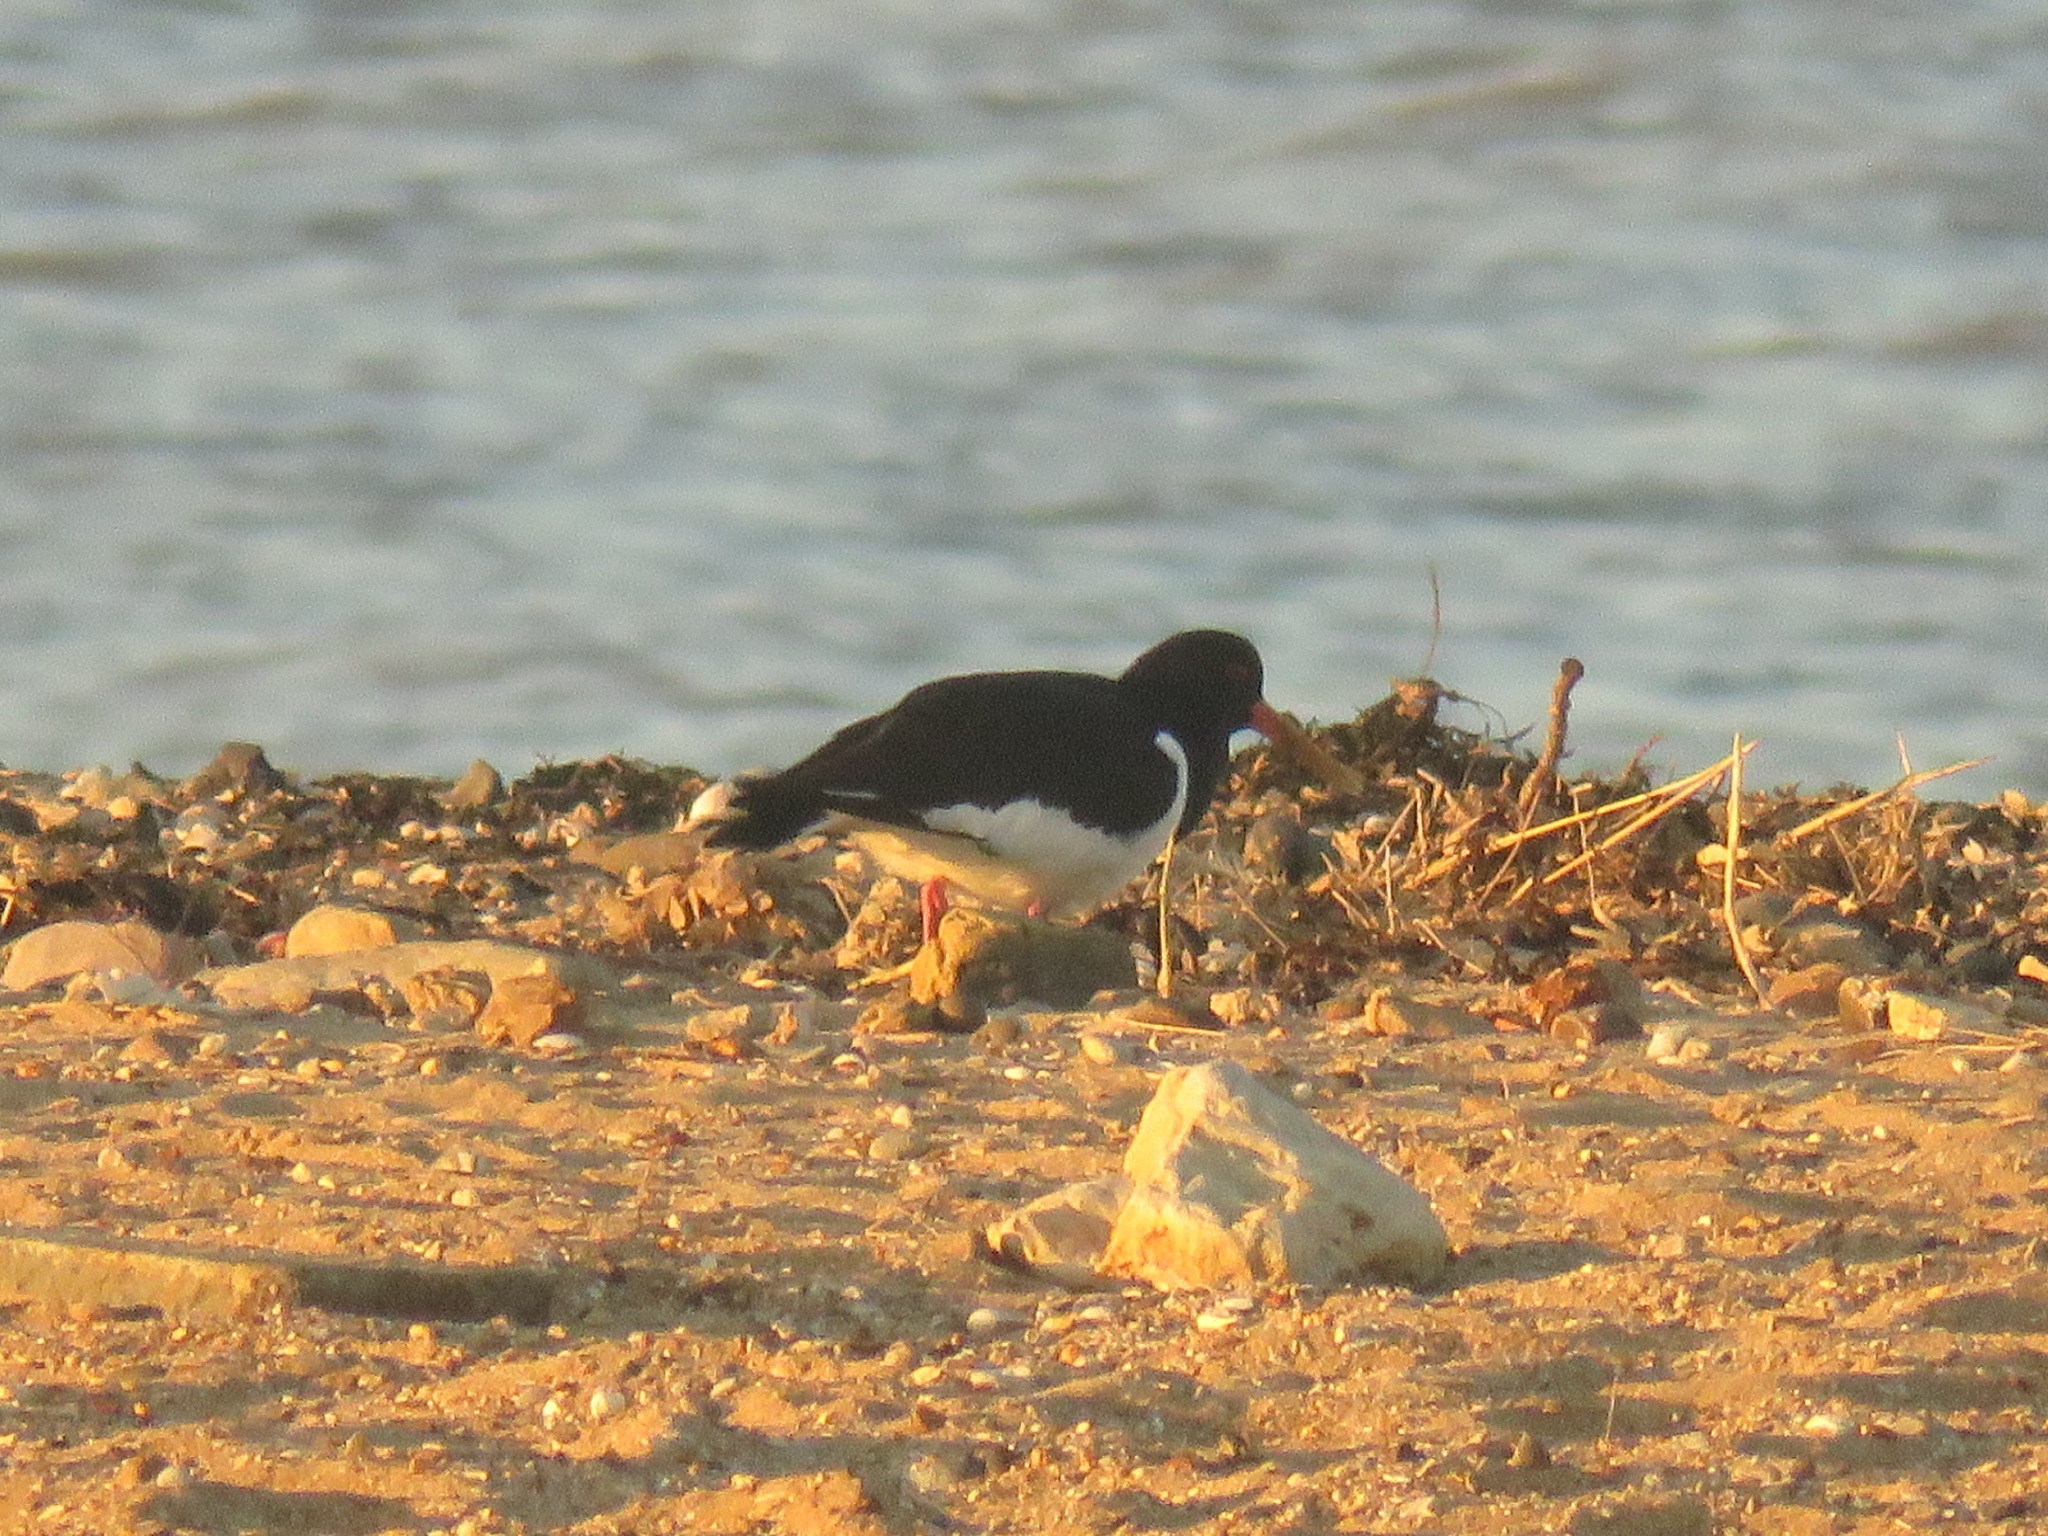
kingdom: Animalia
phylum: Chordata
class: Aves
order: Charadriiformes
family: Haematopodidae
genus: Haematopus
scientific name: Haematopus ostralegus
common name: Eurasian oystercatcher
